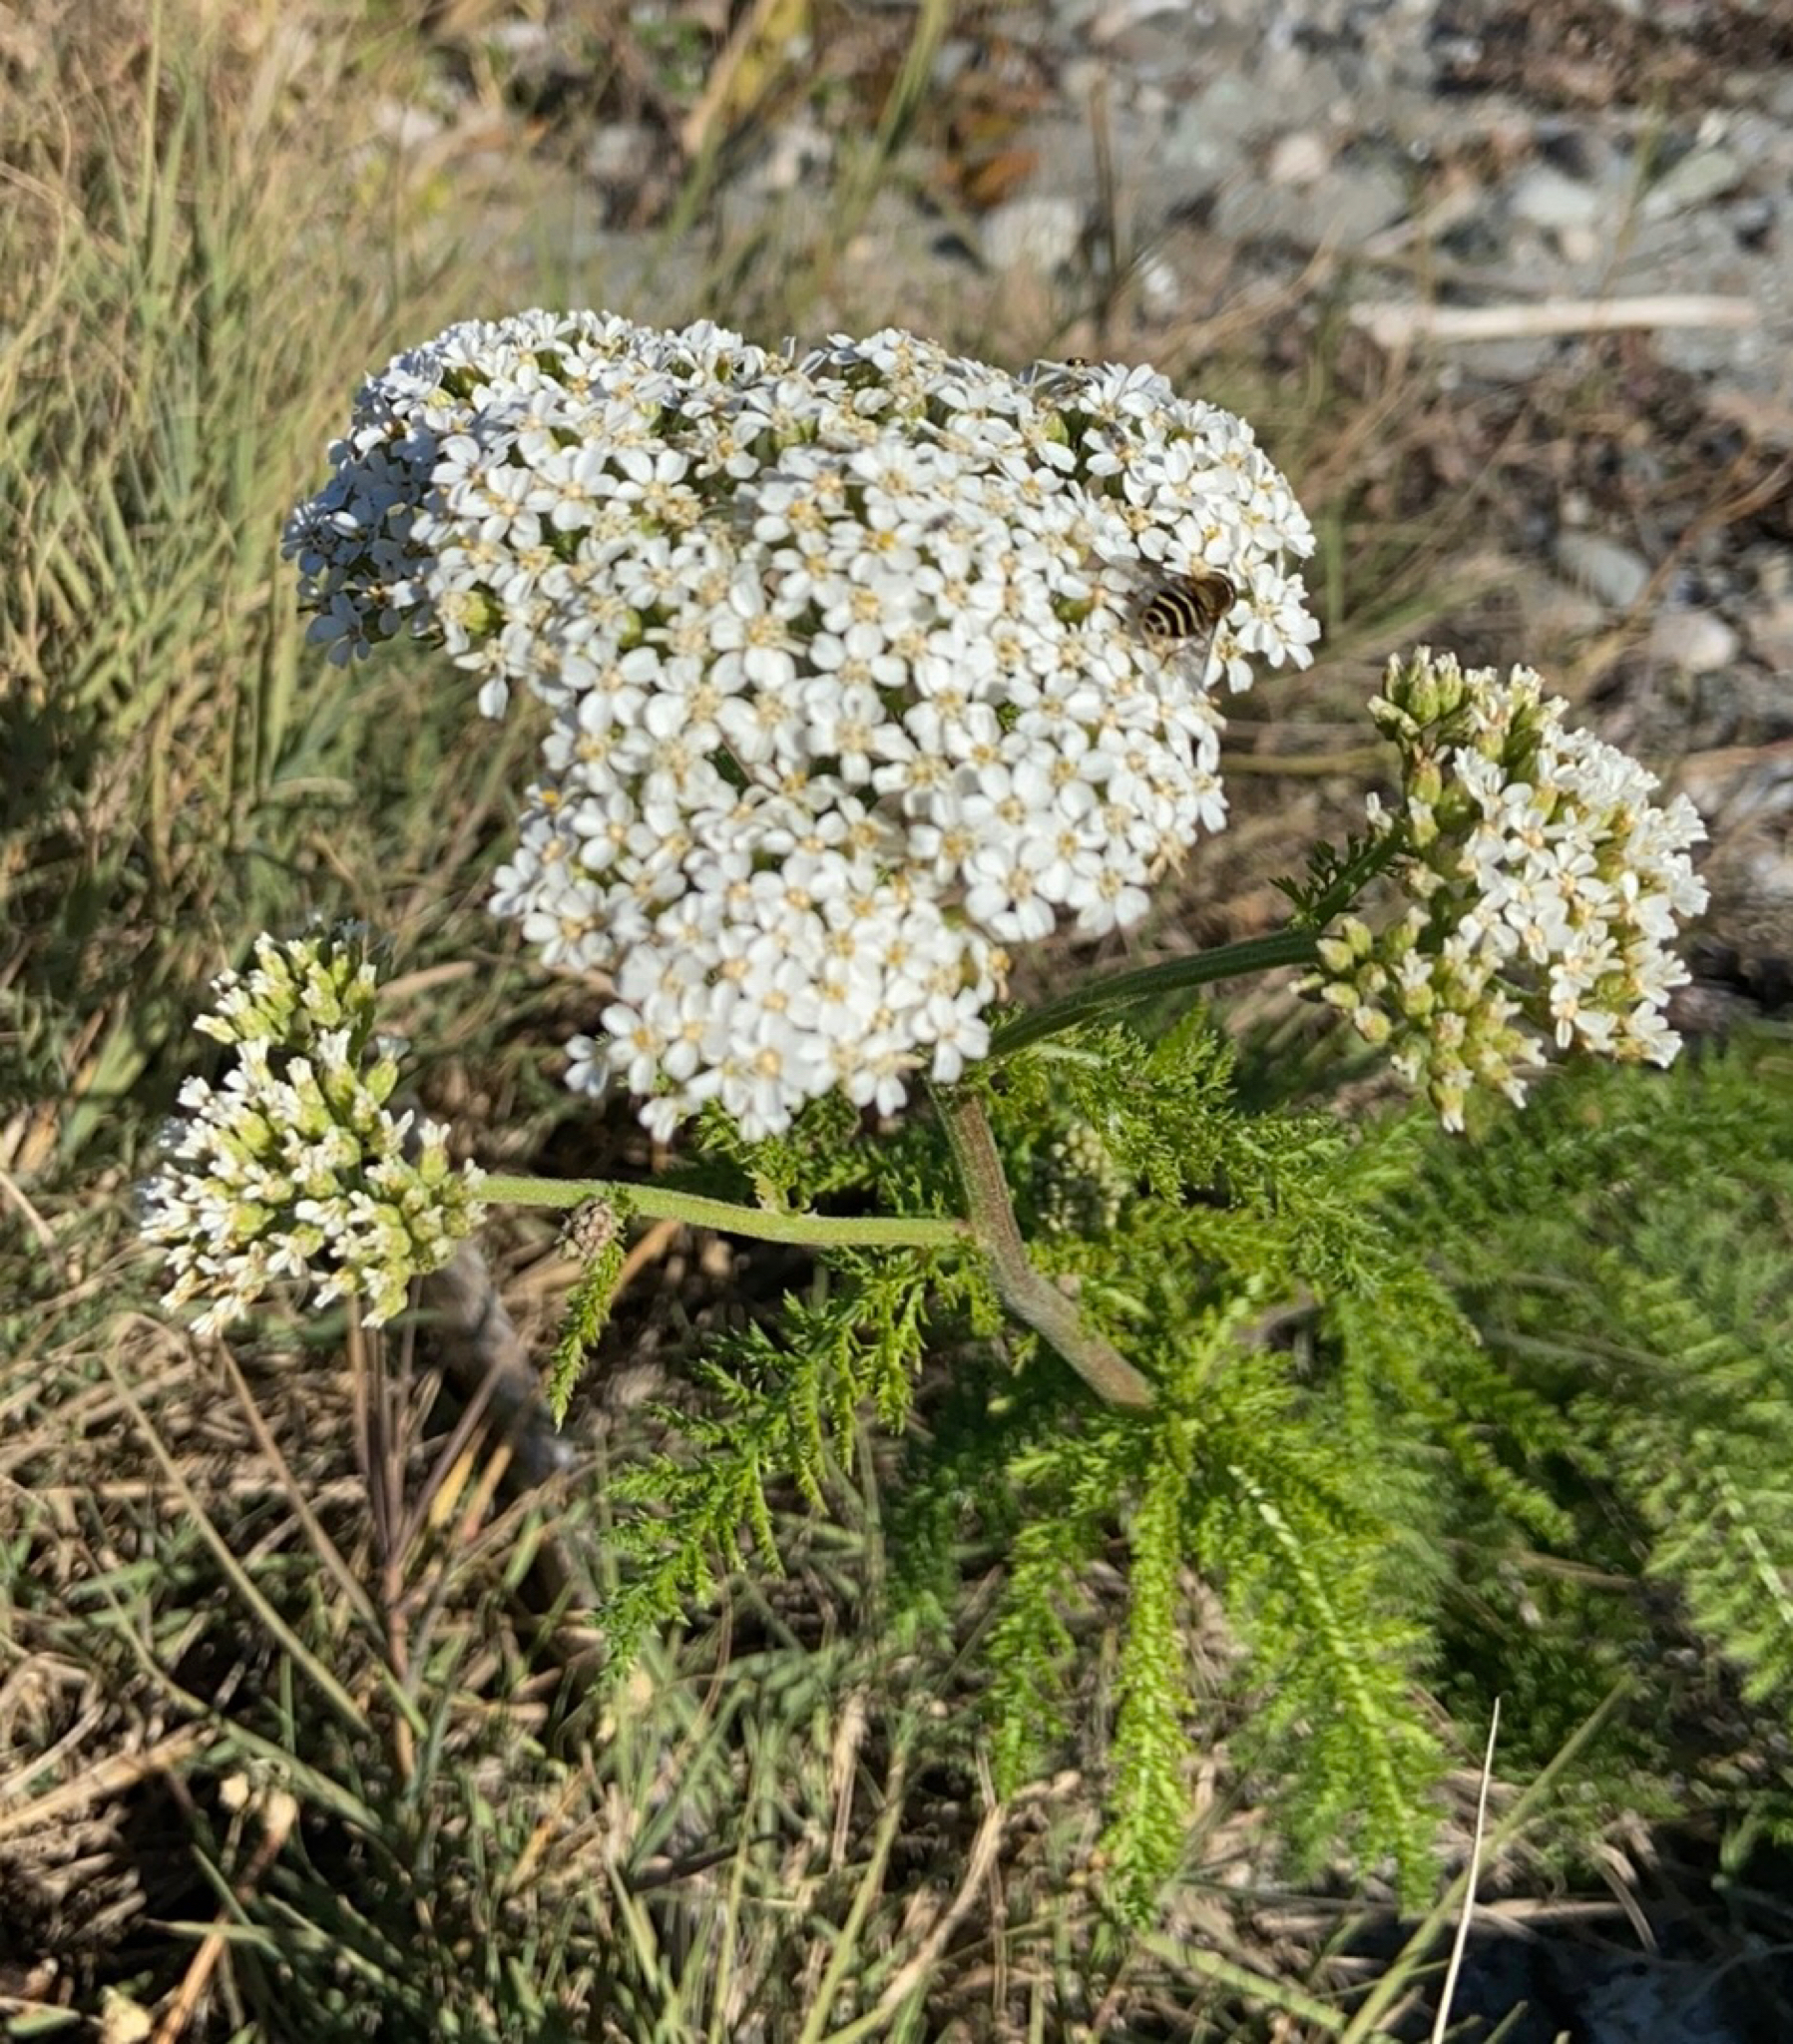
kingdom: Plantae
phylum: Tracheophyta
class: Magnoliopsida
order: Asterales
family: Asteraceae
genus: Achillea
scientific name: Achillea millefolium
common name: Yarrow
